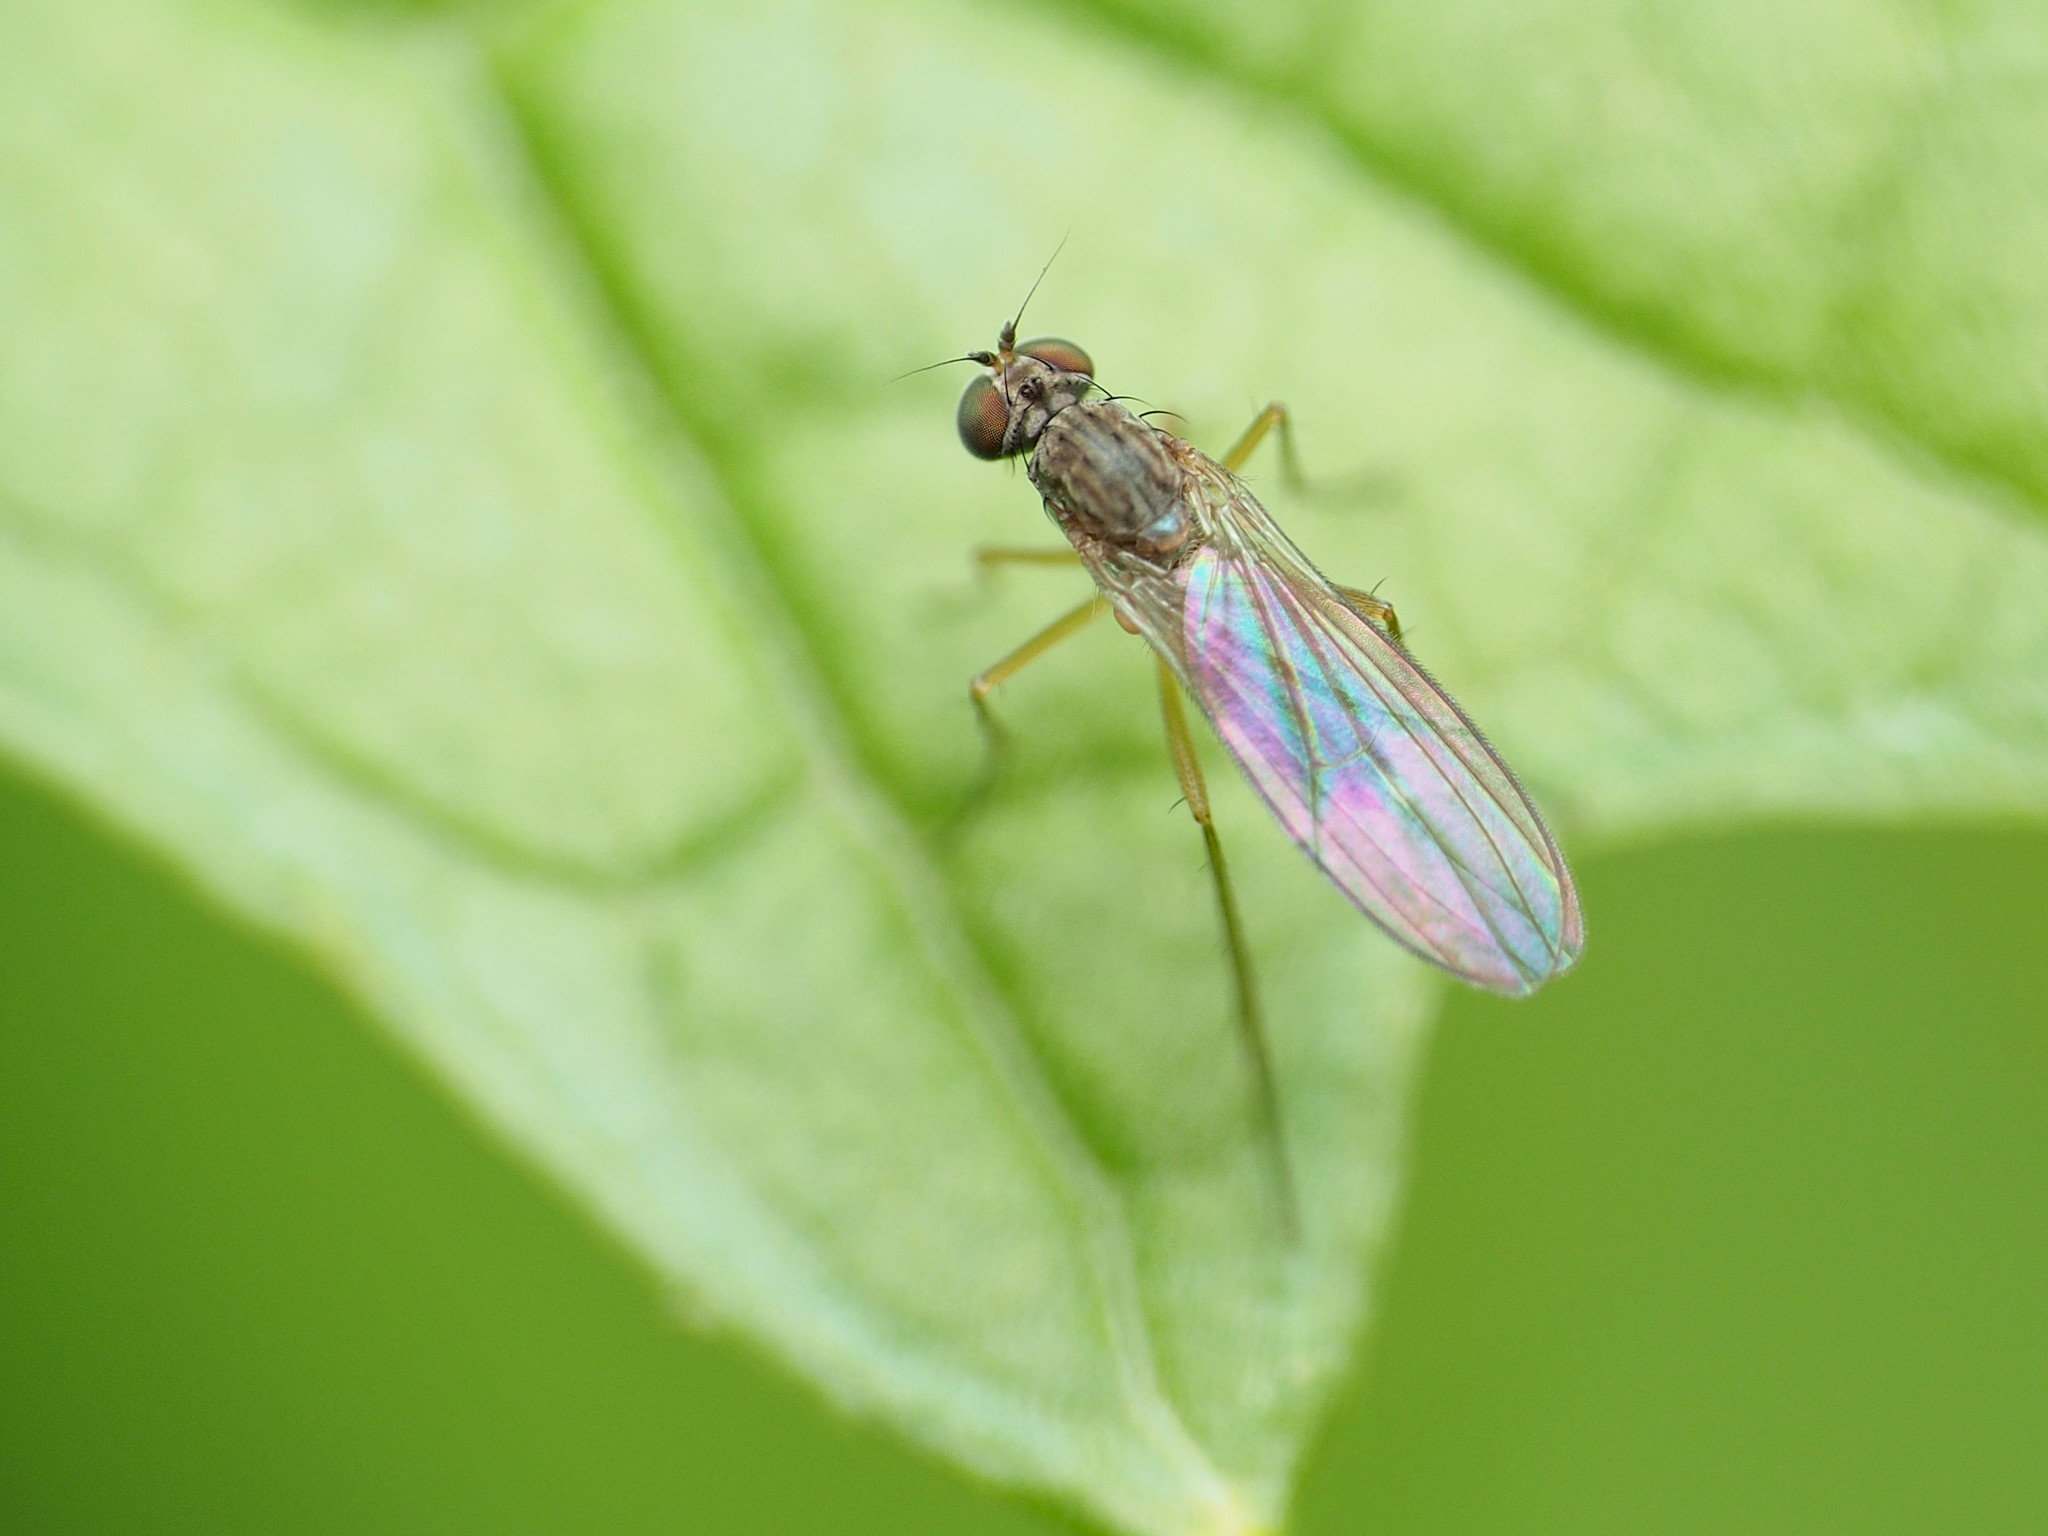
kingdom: Animalia
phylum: Arthropoda
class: Insecta
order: Diptera
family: Dolichopodidae
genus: Sympycnus
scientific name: Sympycnus lineatus
